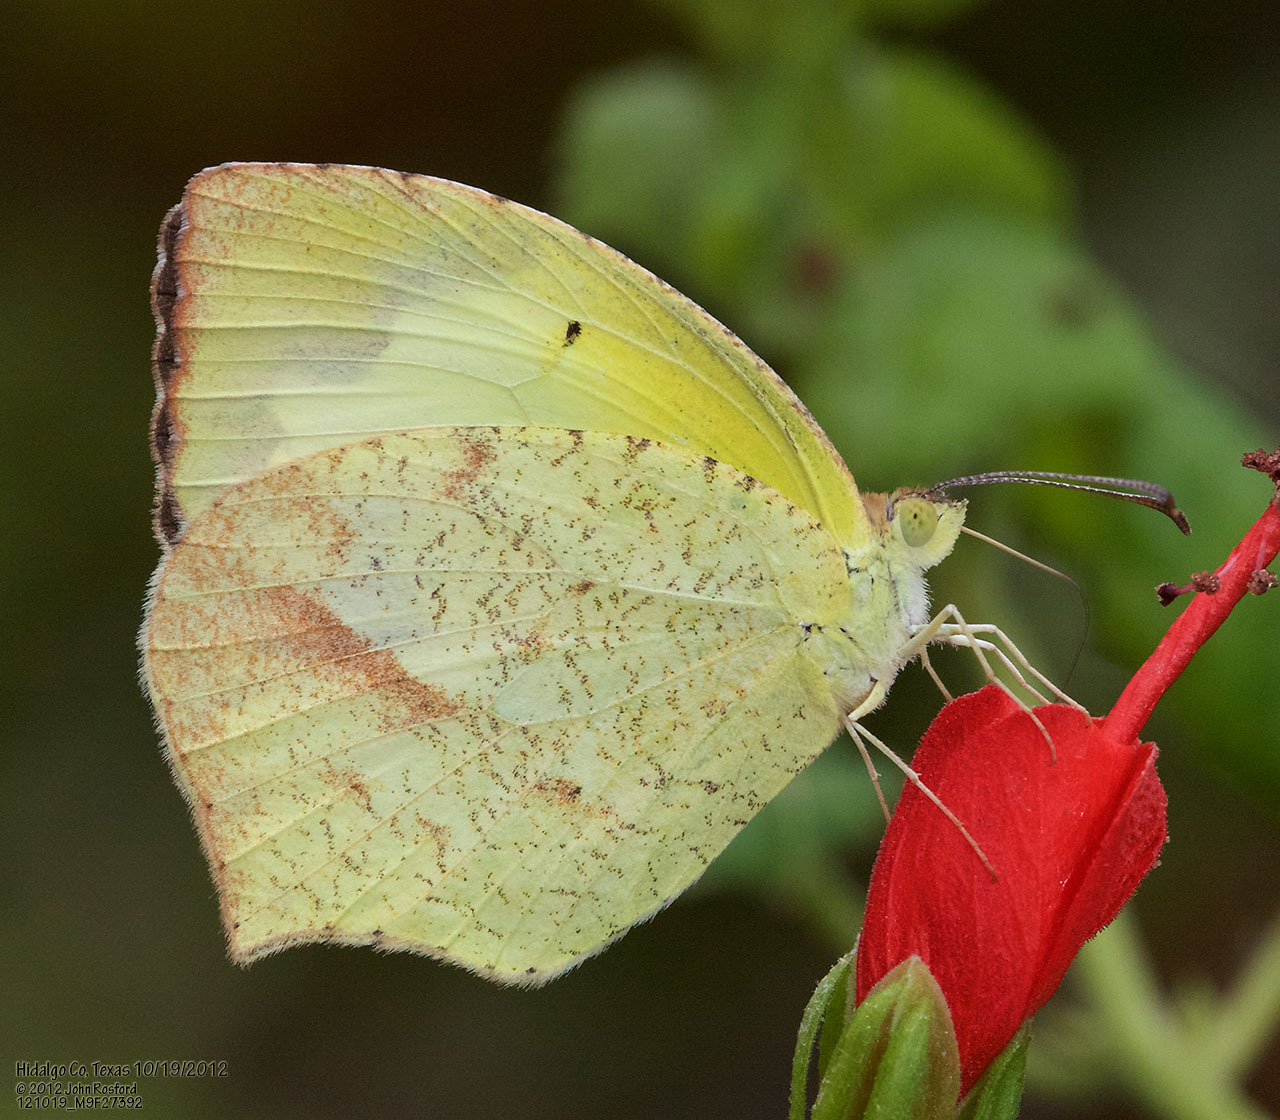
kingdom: Animalia
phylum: Arthropoda
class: Insecta
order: Lepidoptera
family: Pieridae
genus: Abaeis
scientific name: Abaeis mexicana
